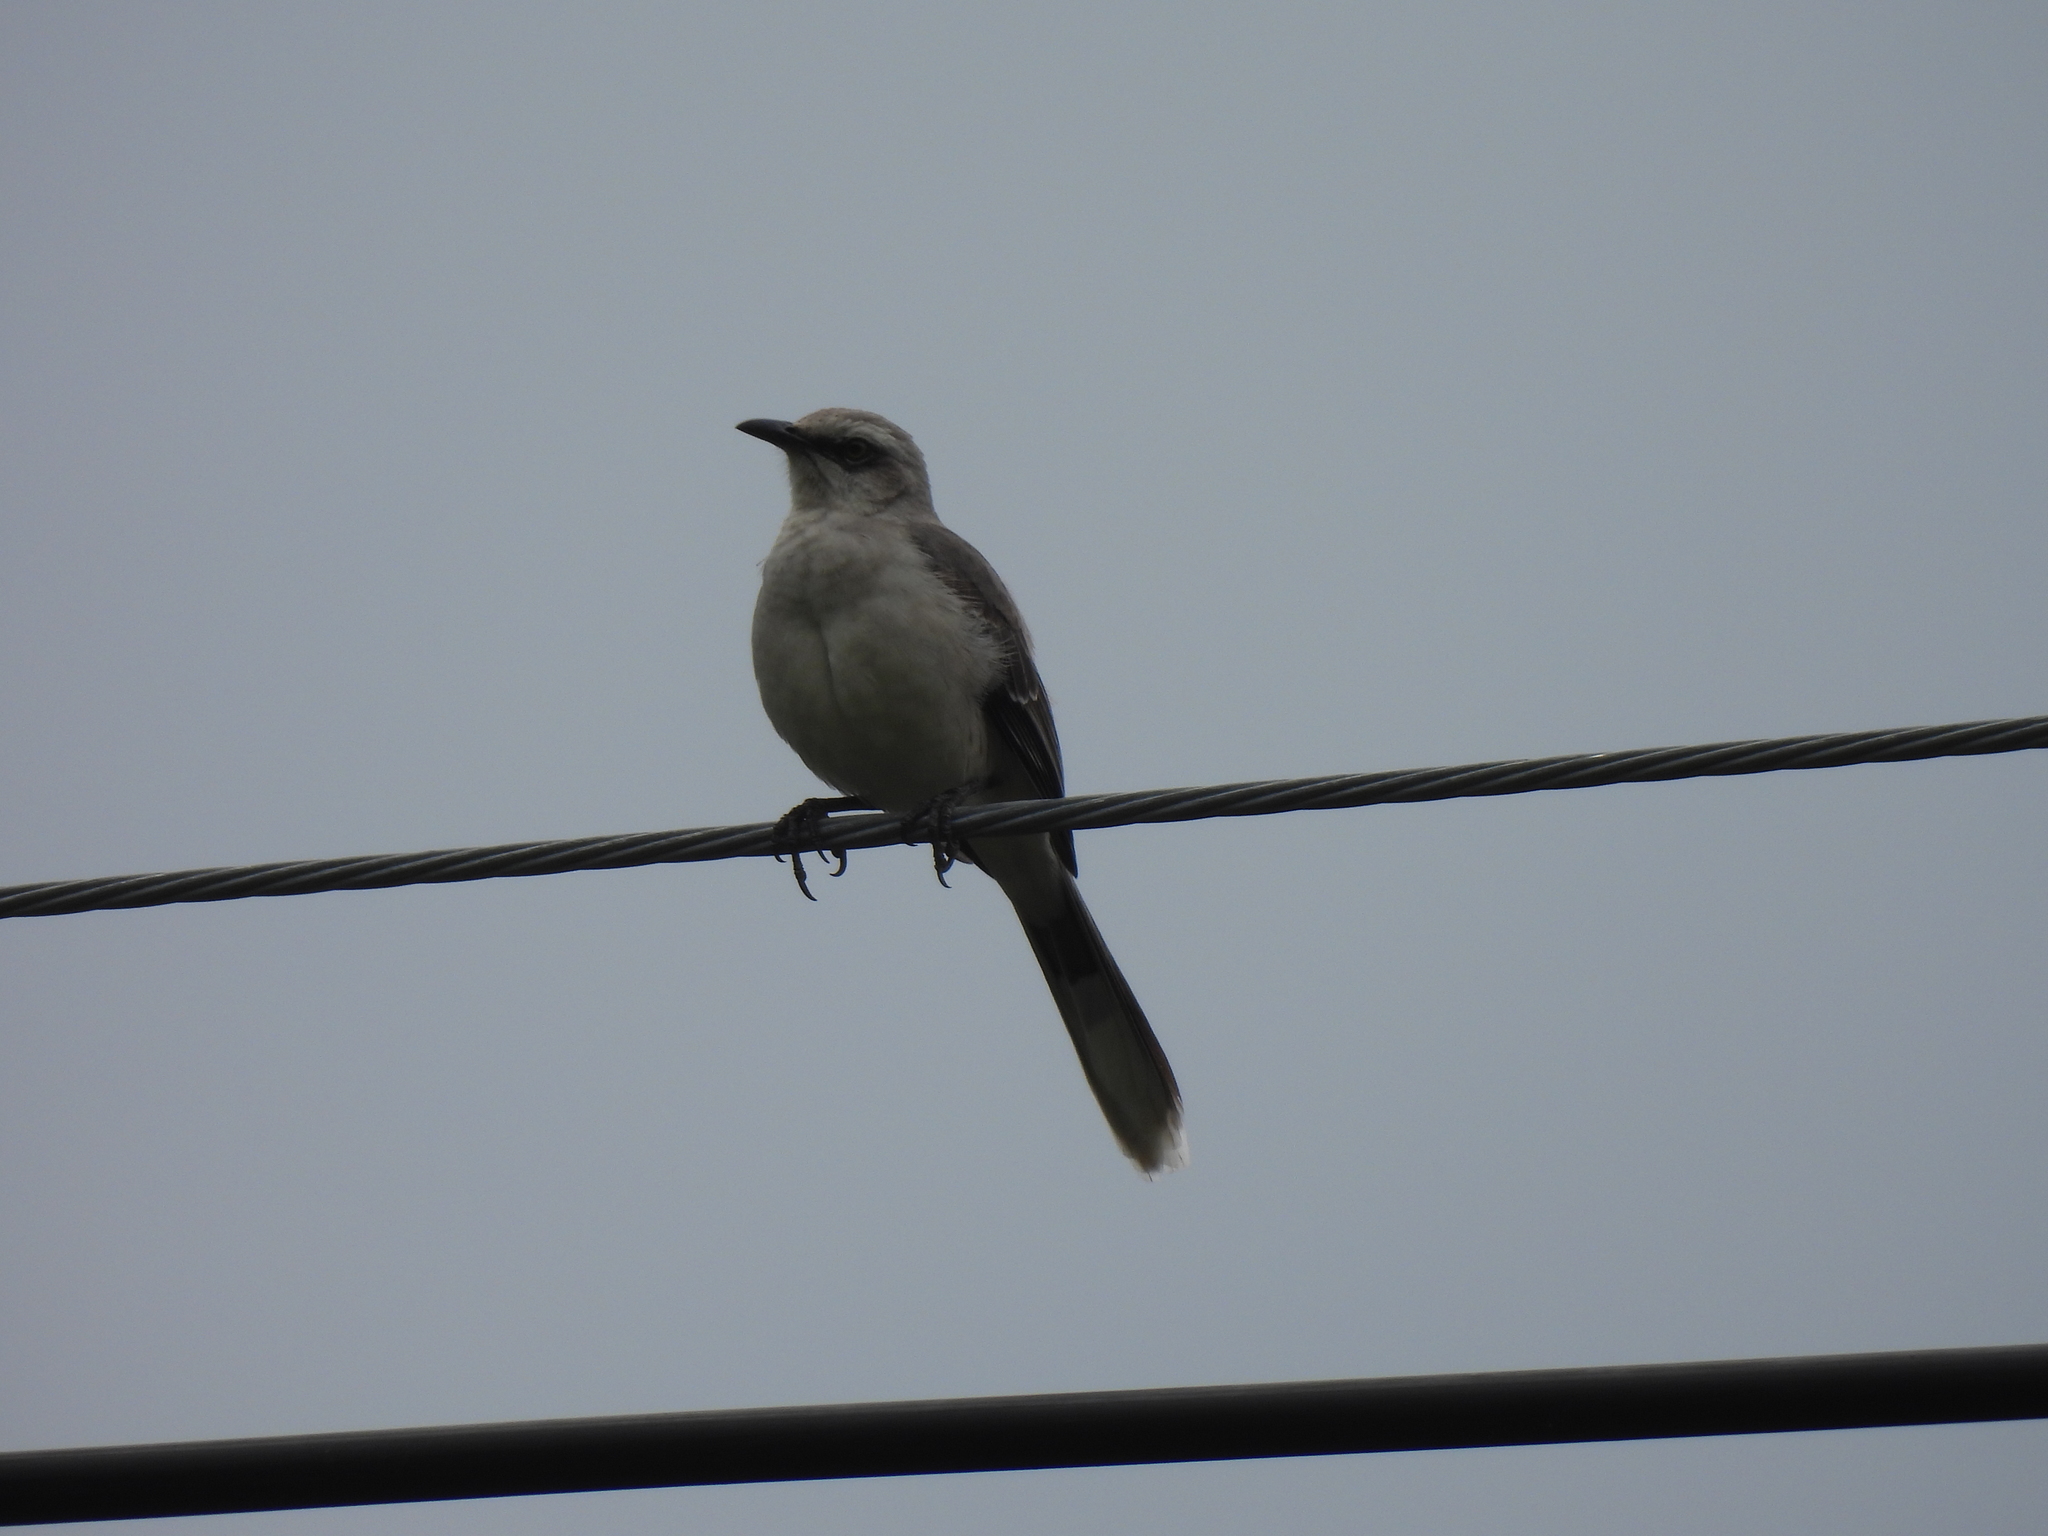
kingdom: Animalia
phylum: Chordata
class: Aves
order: Passeriformes
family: Mimidae
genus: Mimus
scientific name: Mimus gilvus
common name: Tropical mockingbird
